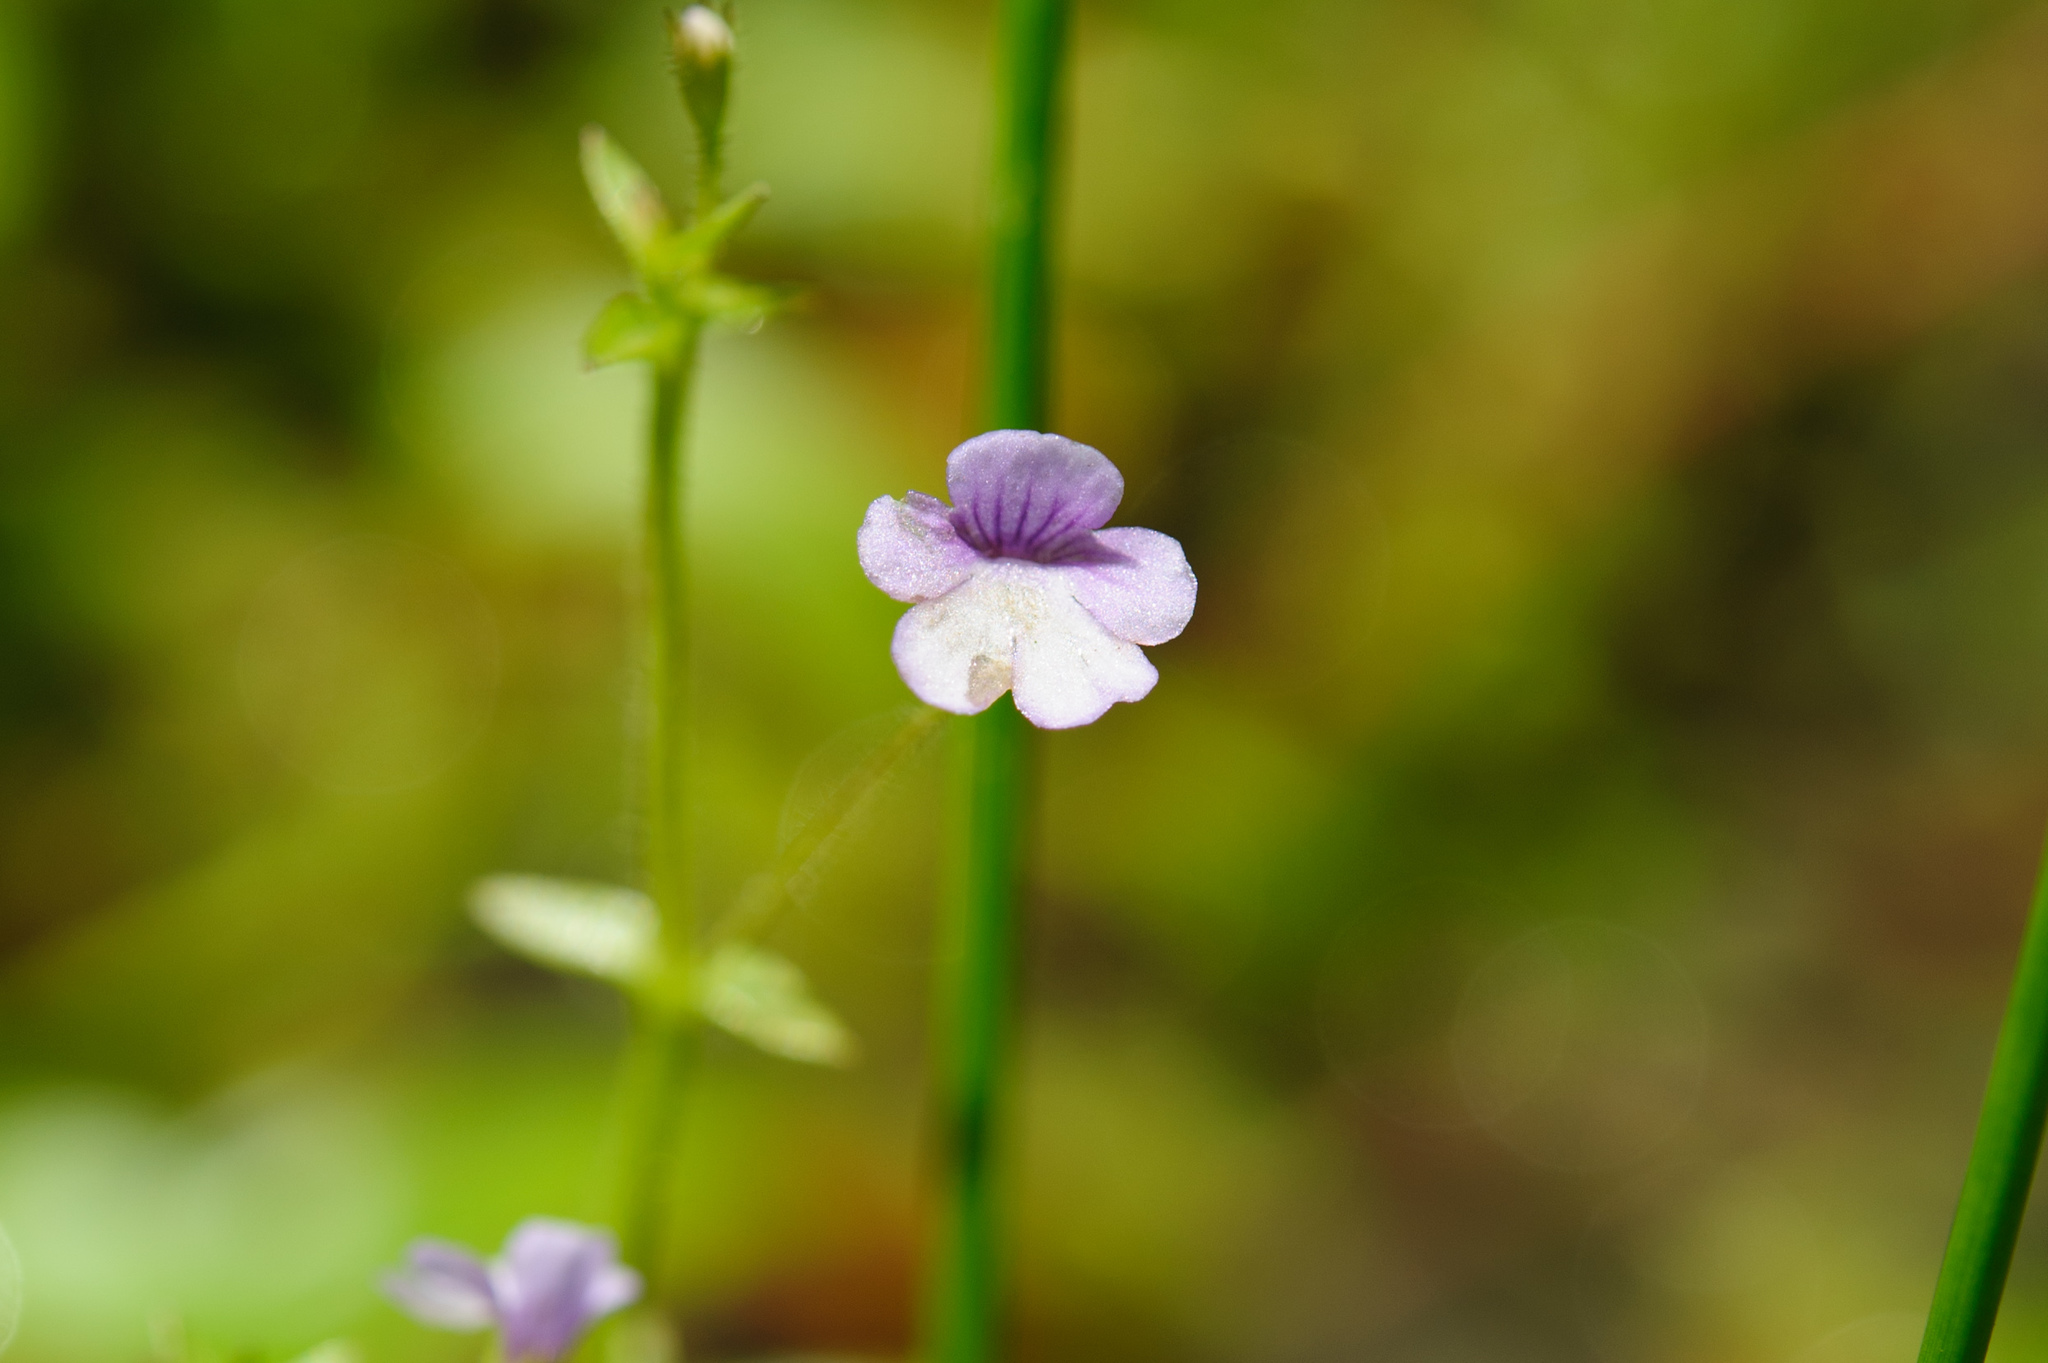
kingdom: Plantae
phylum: Tracheophyta
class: Magnoliopsida
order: Lamiales
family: Plantaginaceae
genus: Deinostema
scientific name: Deinostema adenocaula
